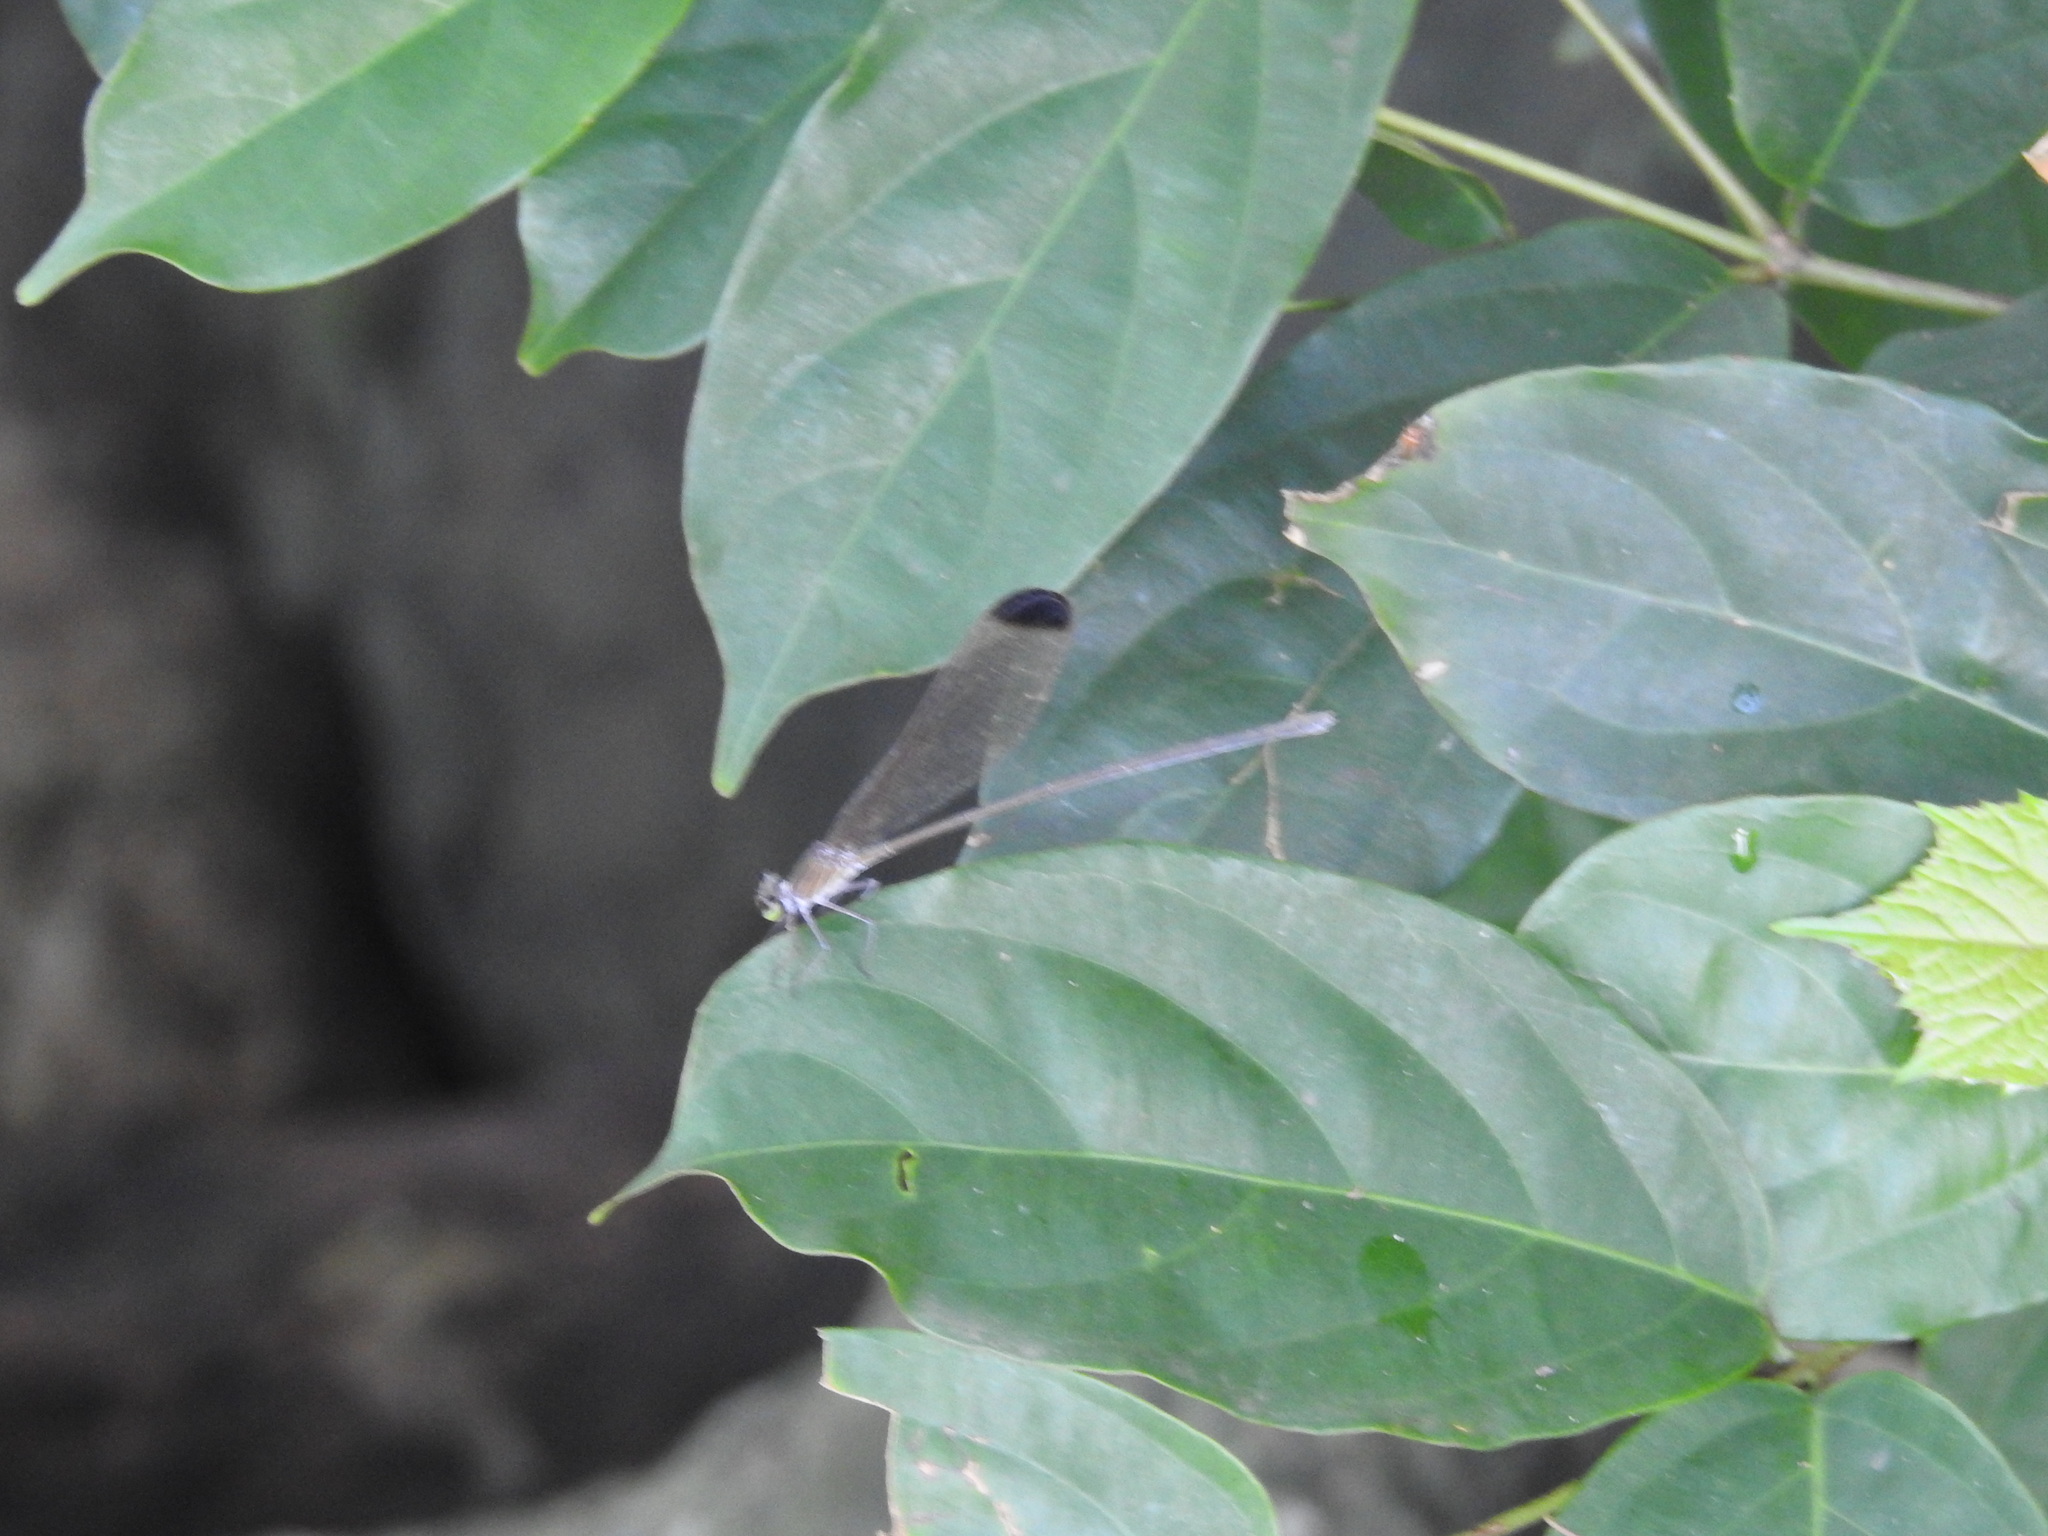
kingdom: Animalia
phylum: Arthropoda
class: Insecta
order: Odonata
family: Calopterygidae
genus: Vestalis
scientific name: Vestalis apicalis
